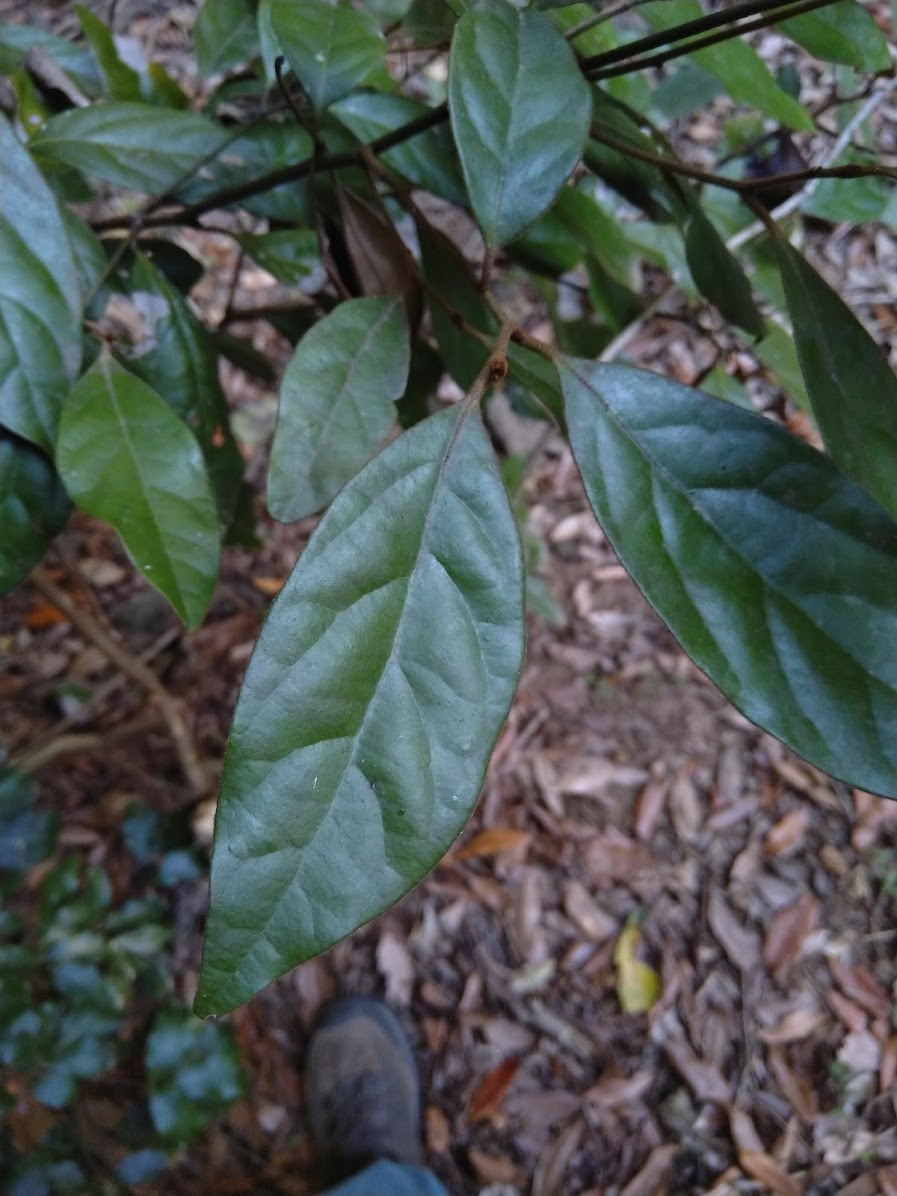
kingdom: Plantae
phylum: Tracheophyta
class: Magnoliopsida
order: Laurales
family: Lauraceae
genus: Litsea
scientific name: Litsea australis
